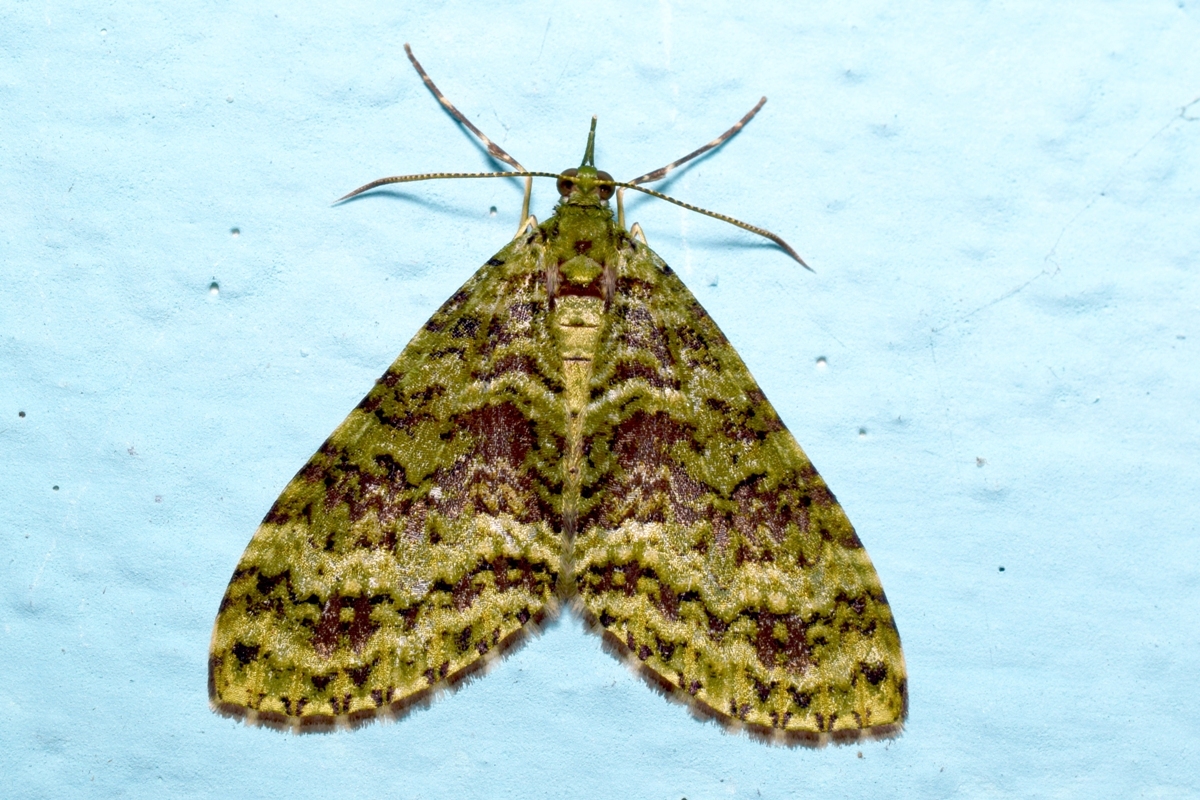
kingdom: Animalia
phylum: Arthropoda
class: Insecta
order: Lepidoptera
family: Geometridae
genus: Sauris
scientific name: Sauris bicolor
